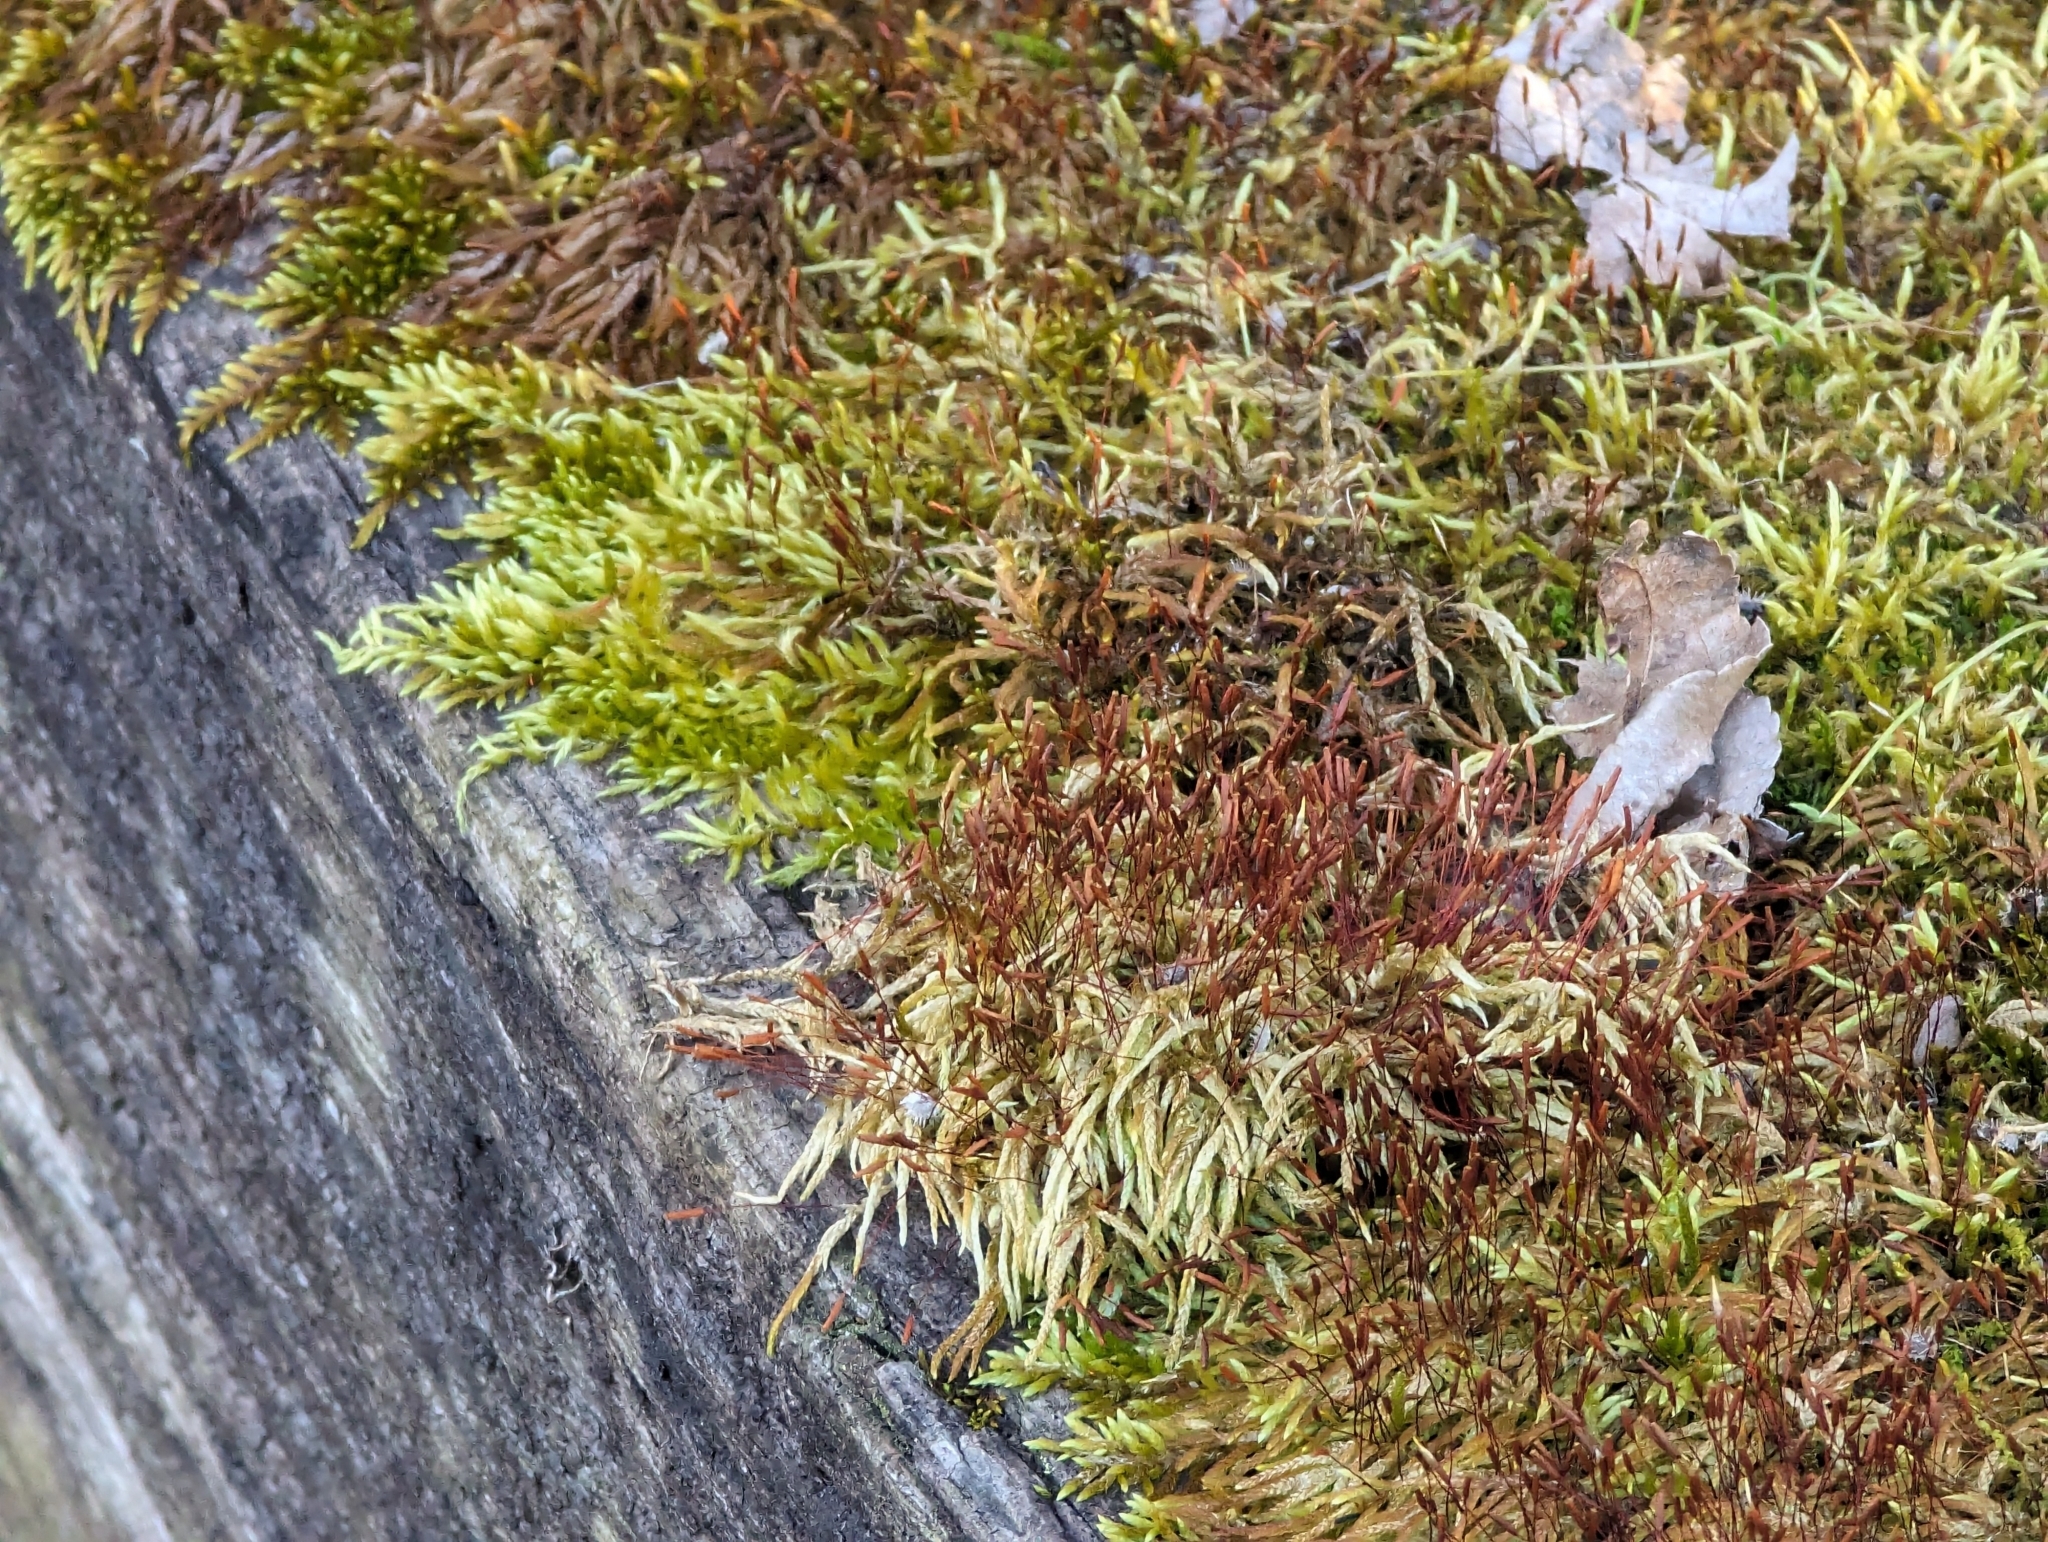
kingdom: Plantae
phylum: Bryophyta
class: Bryopsida
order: Hypnales
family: Entodontaceae
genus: Entodon
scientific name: Entodon seductrix
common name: Round-stemmed entodon moss
